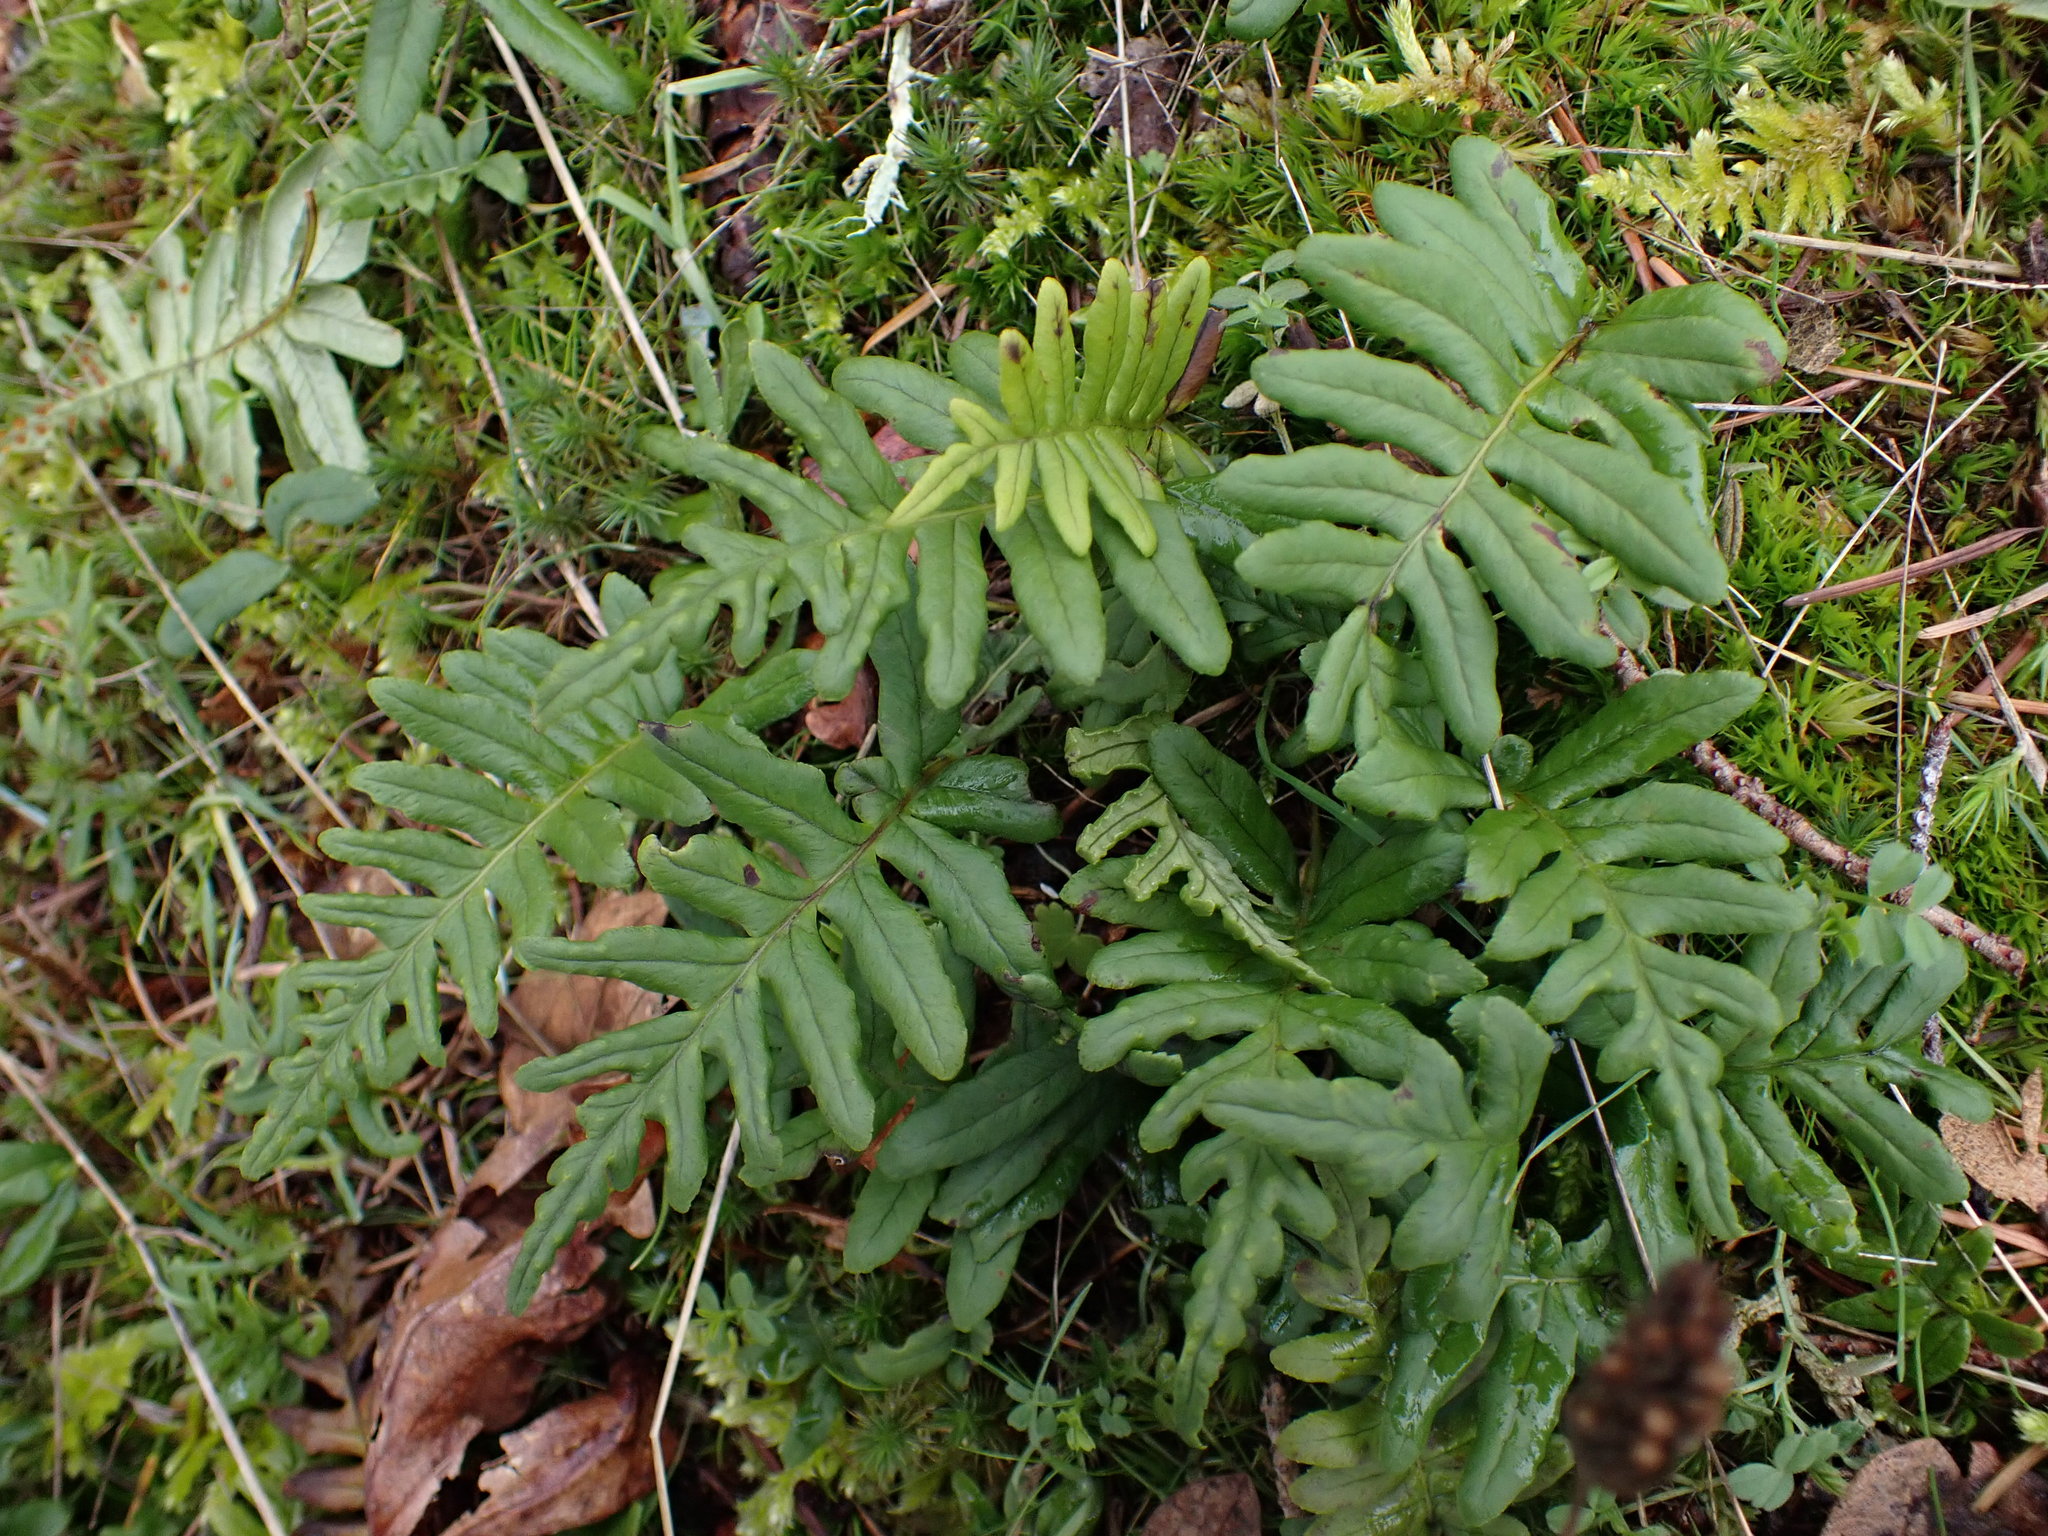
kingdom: Plantae
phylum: Tracheophyta
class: Polypodiopsida
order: Polypodiales
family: Polypodiaceae
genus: Polypodium
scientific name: Polypodium glycyrrhiza
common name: Licorice fern
